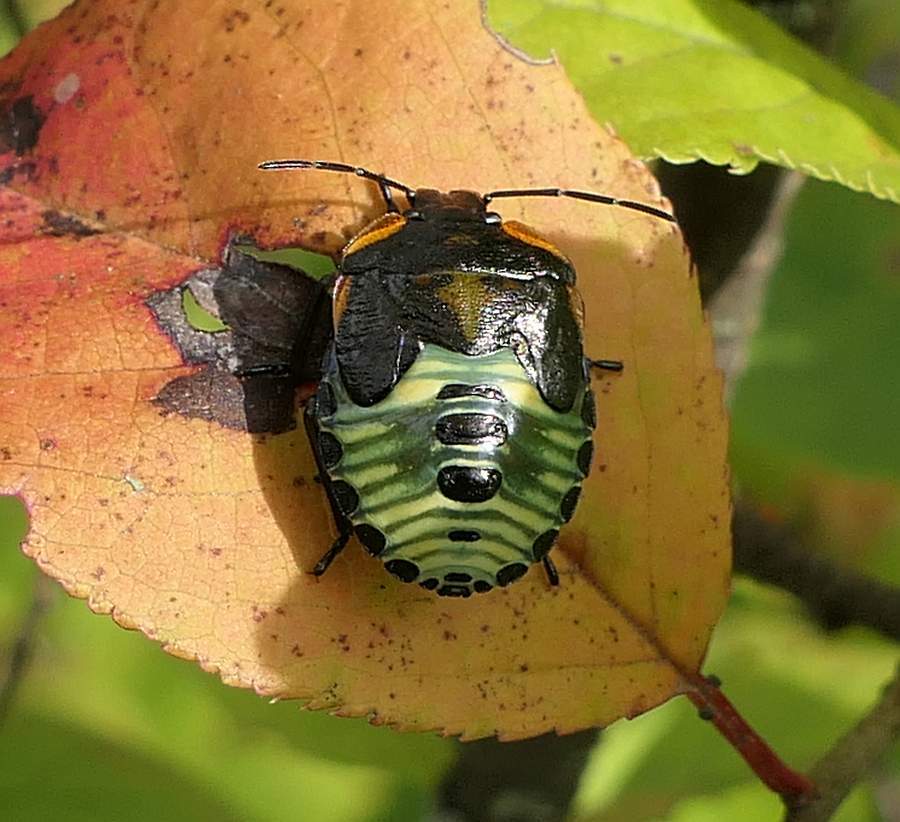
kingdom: Animalia
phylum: Arthropoda
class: Insecta
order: Hemiptera
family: Pentatomidae
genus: Chinavia
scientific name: Chinavia hilaris
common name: Green stink bug
